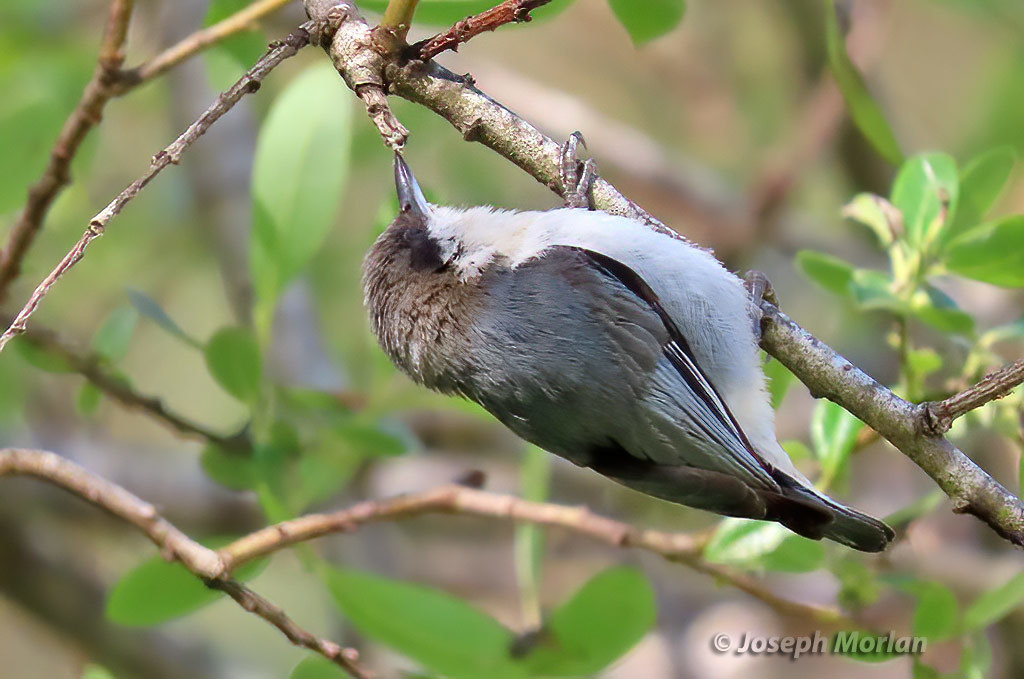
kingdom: Animalia
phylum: Chordata
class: Aves
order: Passeriformes
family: Sittidae
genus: Sitta
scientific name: Sitta pygmaea
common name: Pygmy nuthatch
